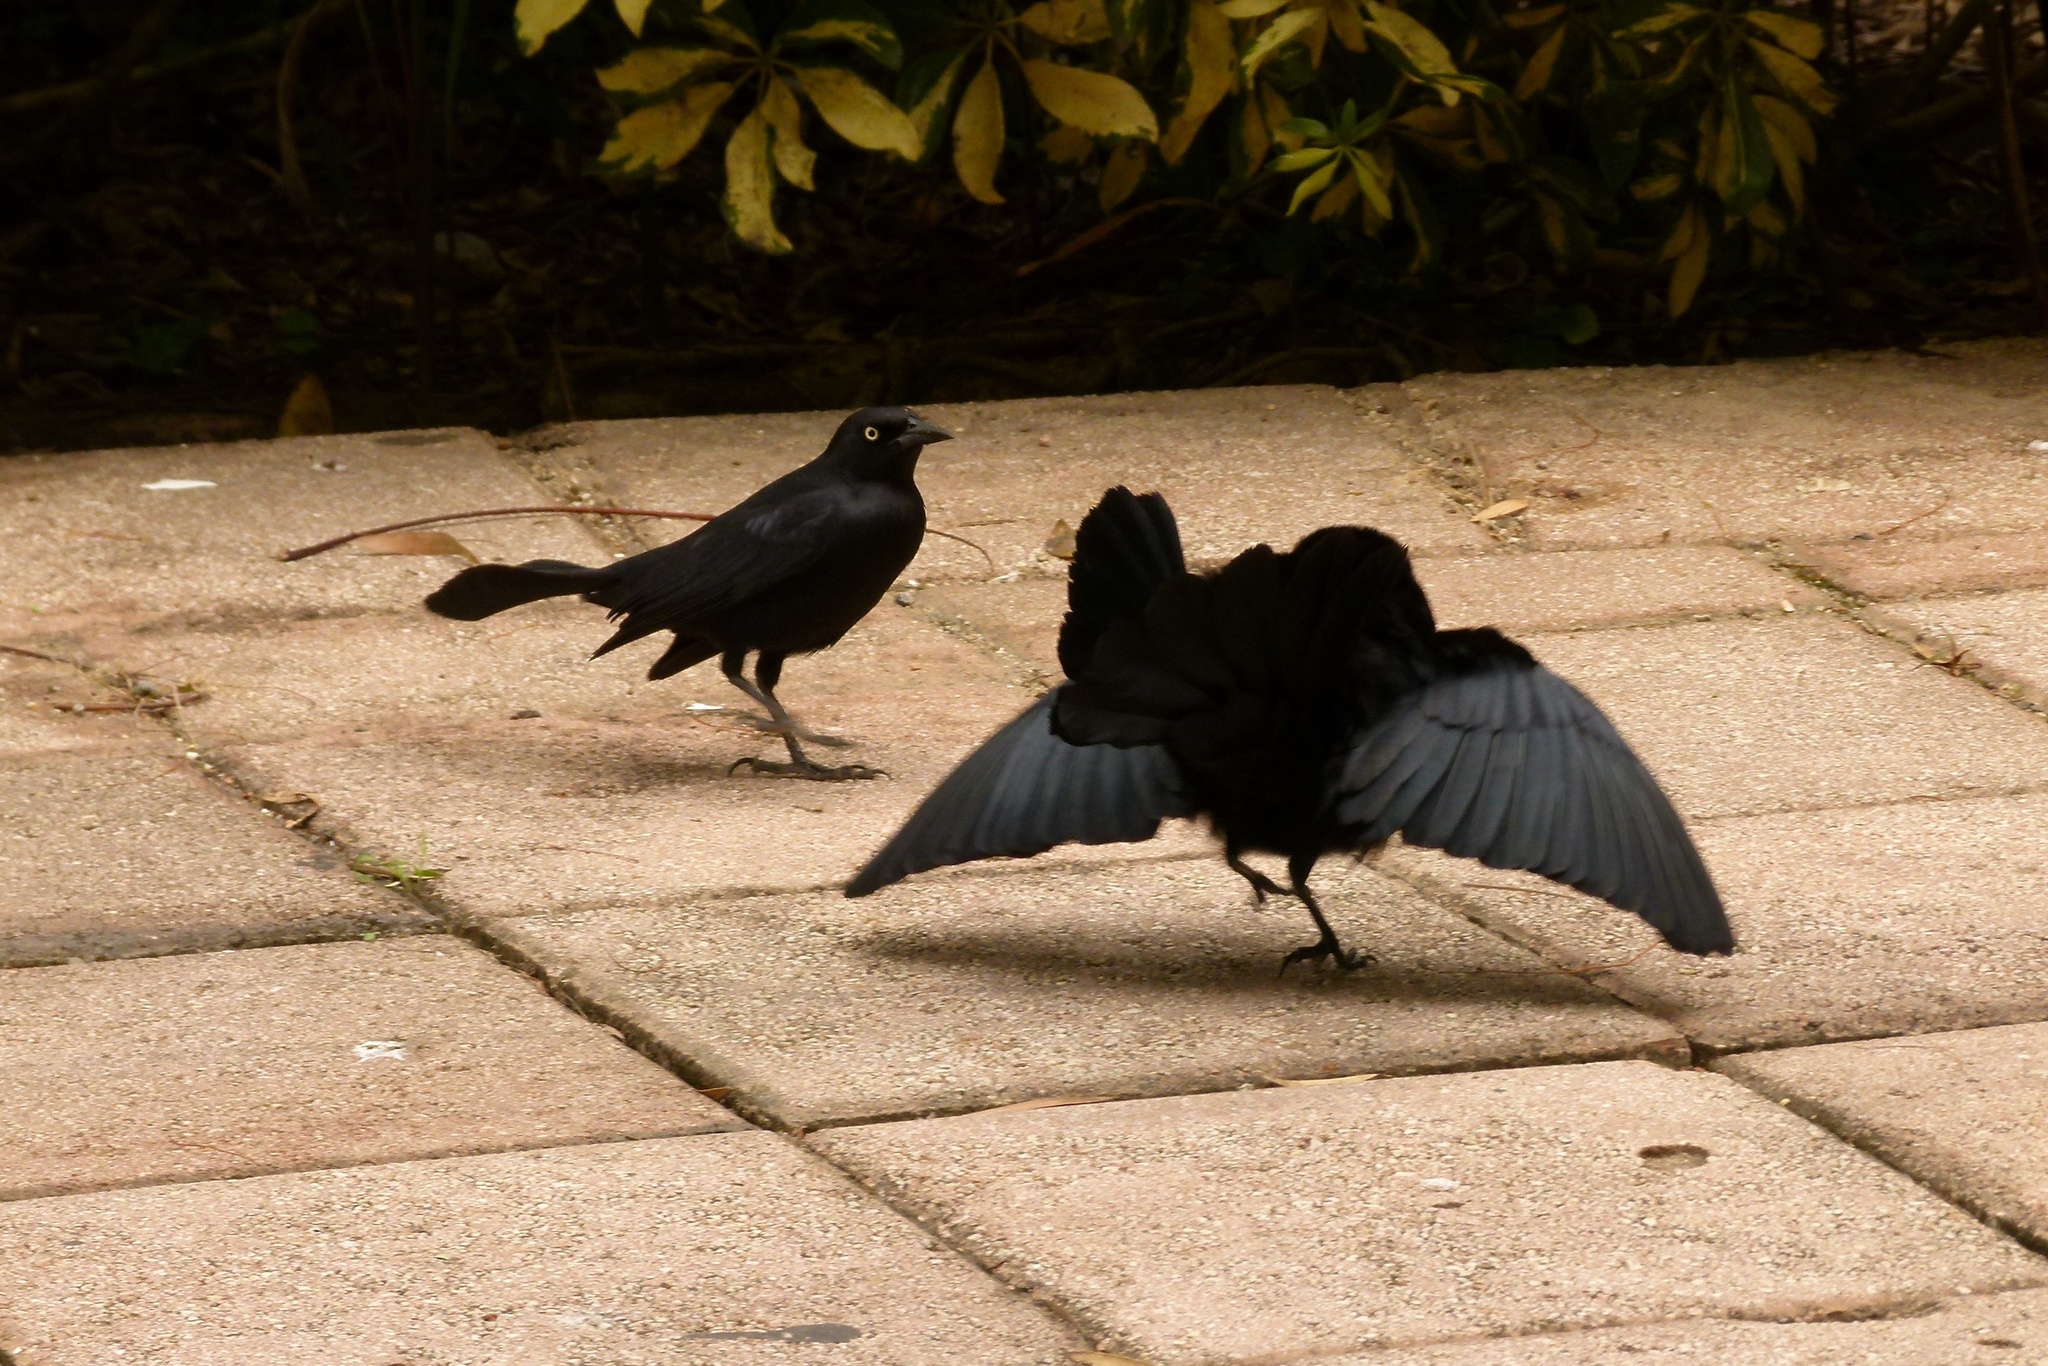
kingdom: Animalia
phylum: Chordata
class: Aves
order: Passeriformes
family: Icteridae
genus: Quiscalus
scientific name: Quiscalus niger
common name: Greater antillean grackle
